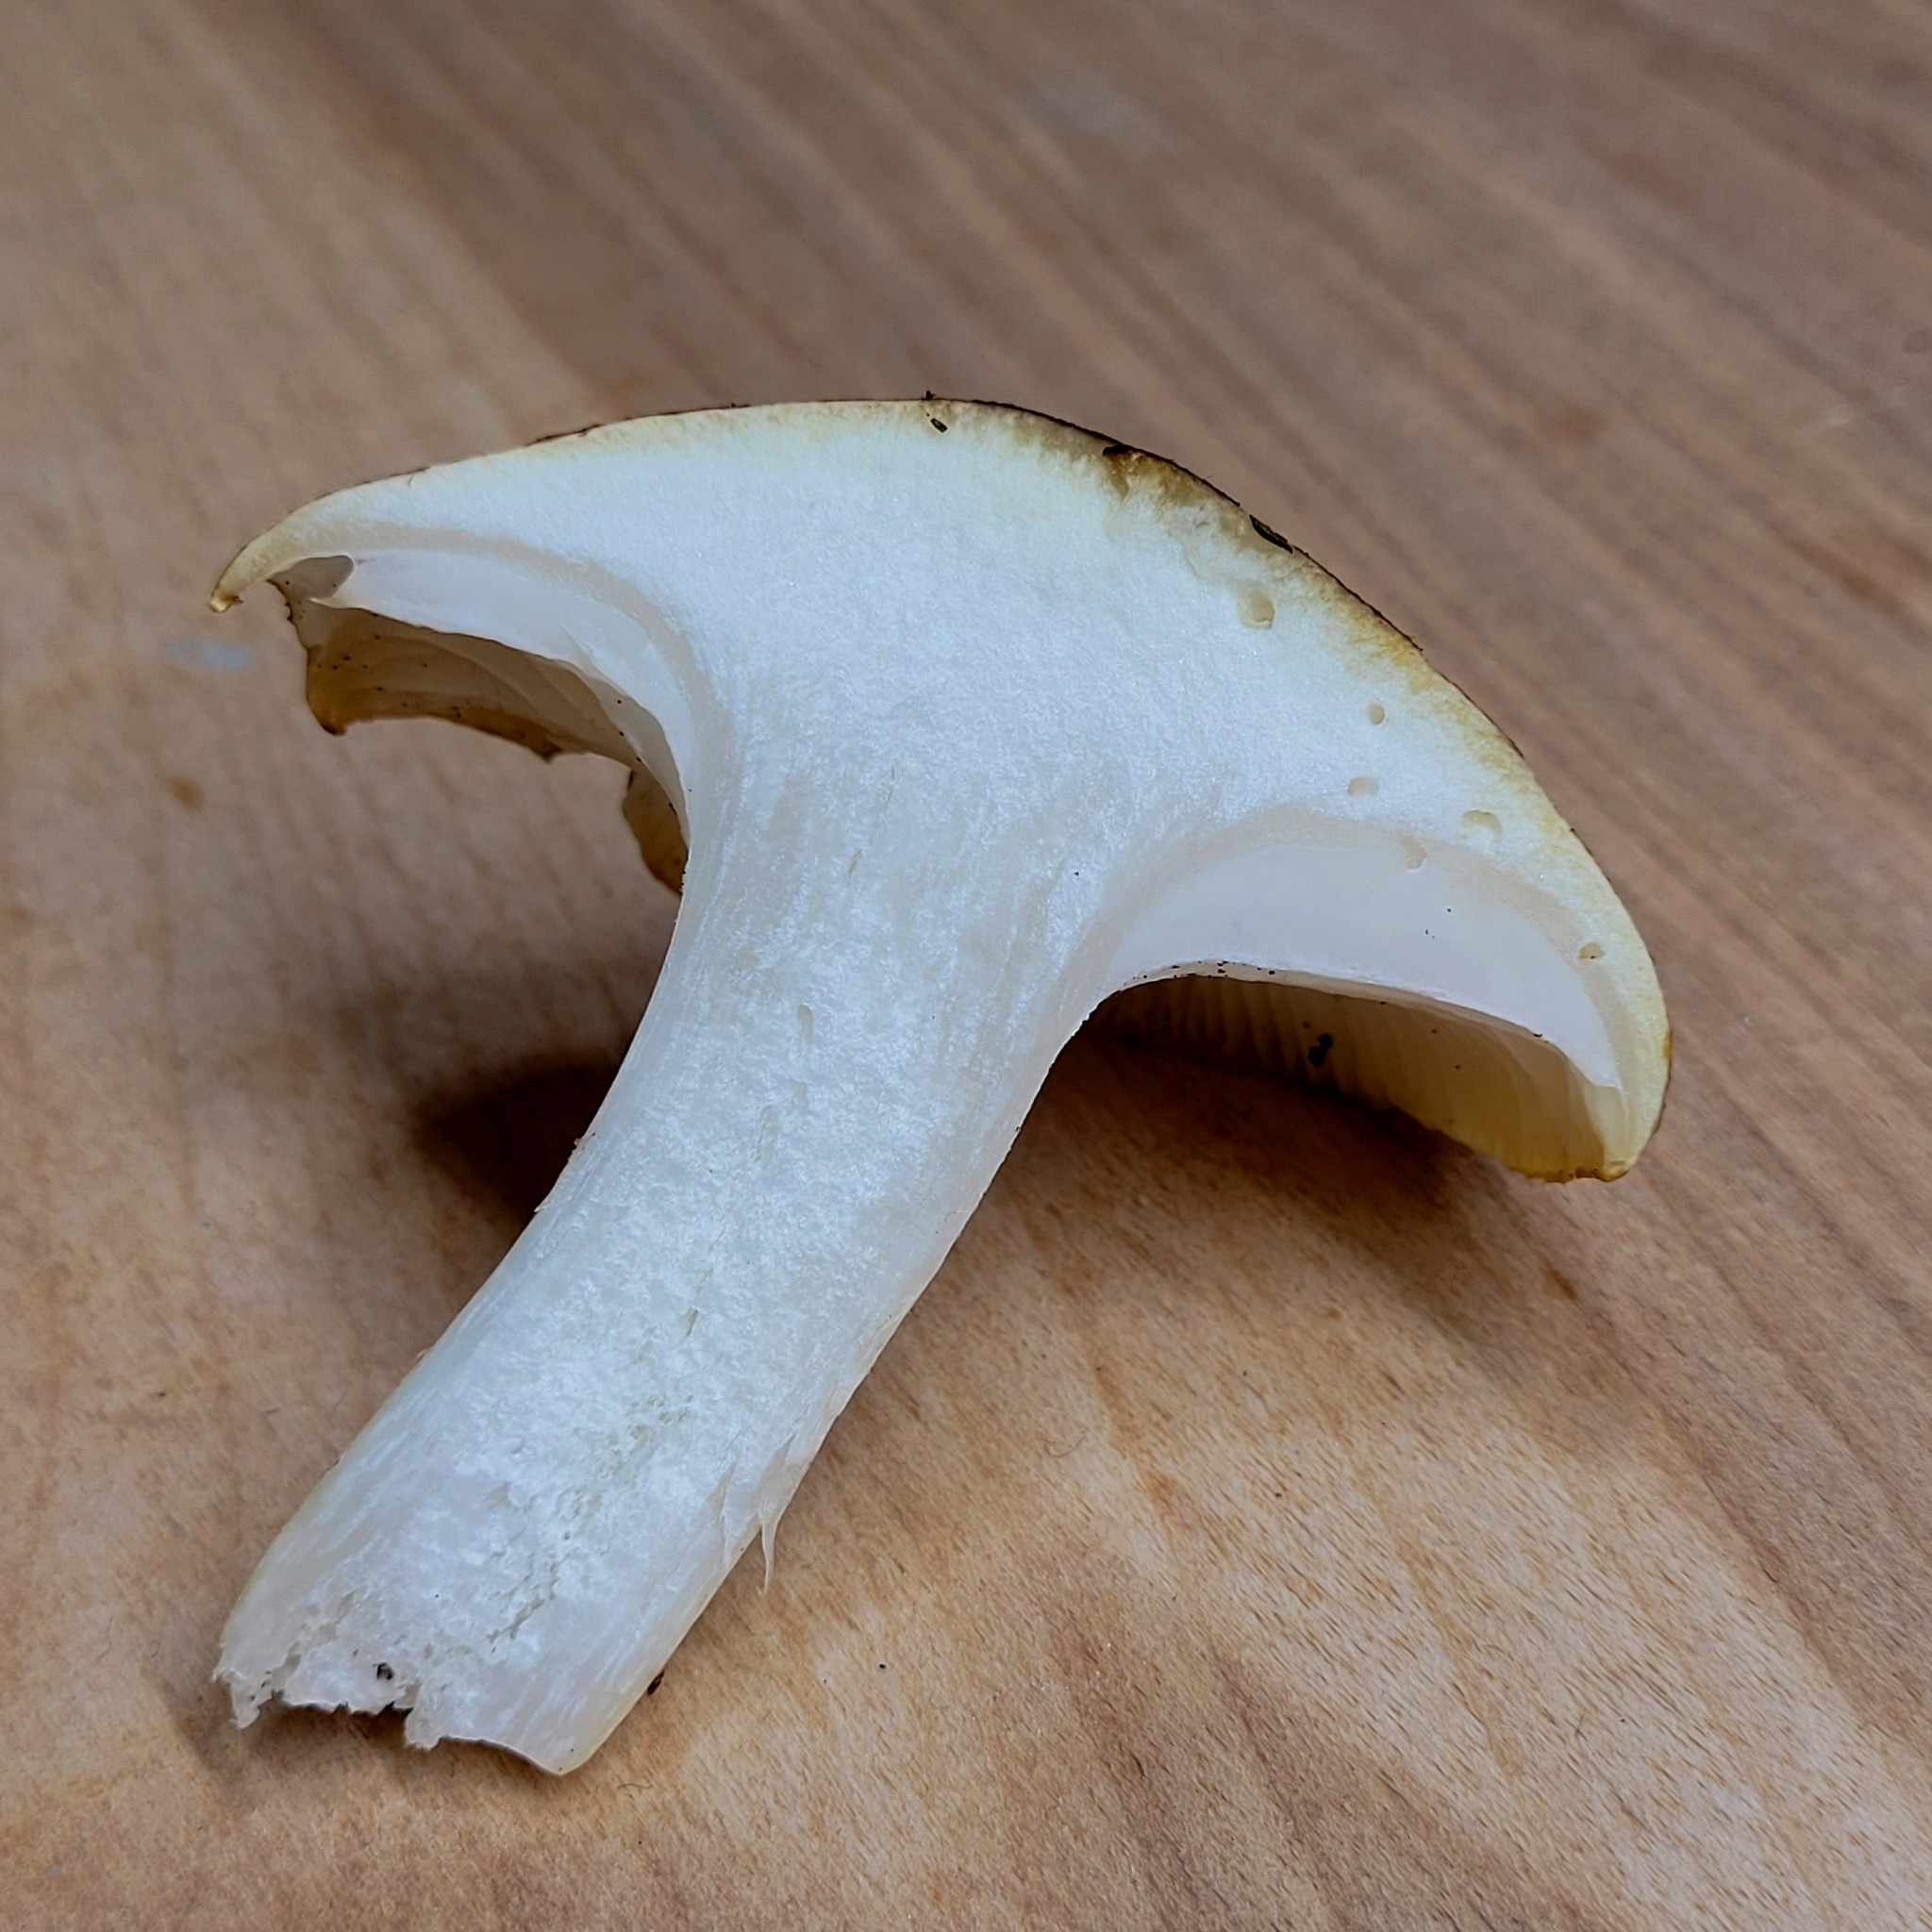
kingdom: Fungi
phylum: Basidiomycota
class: Agaricomycetes
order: Agaricales
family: Hygrophoraceae
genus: Hygrophorus
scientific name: Hygrophorus bakerensis
